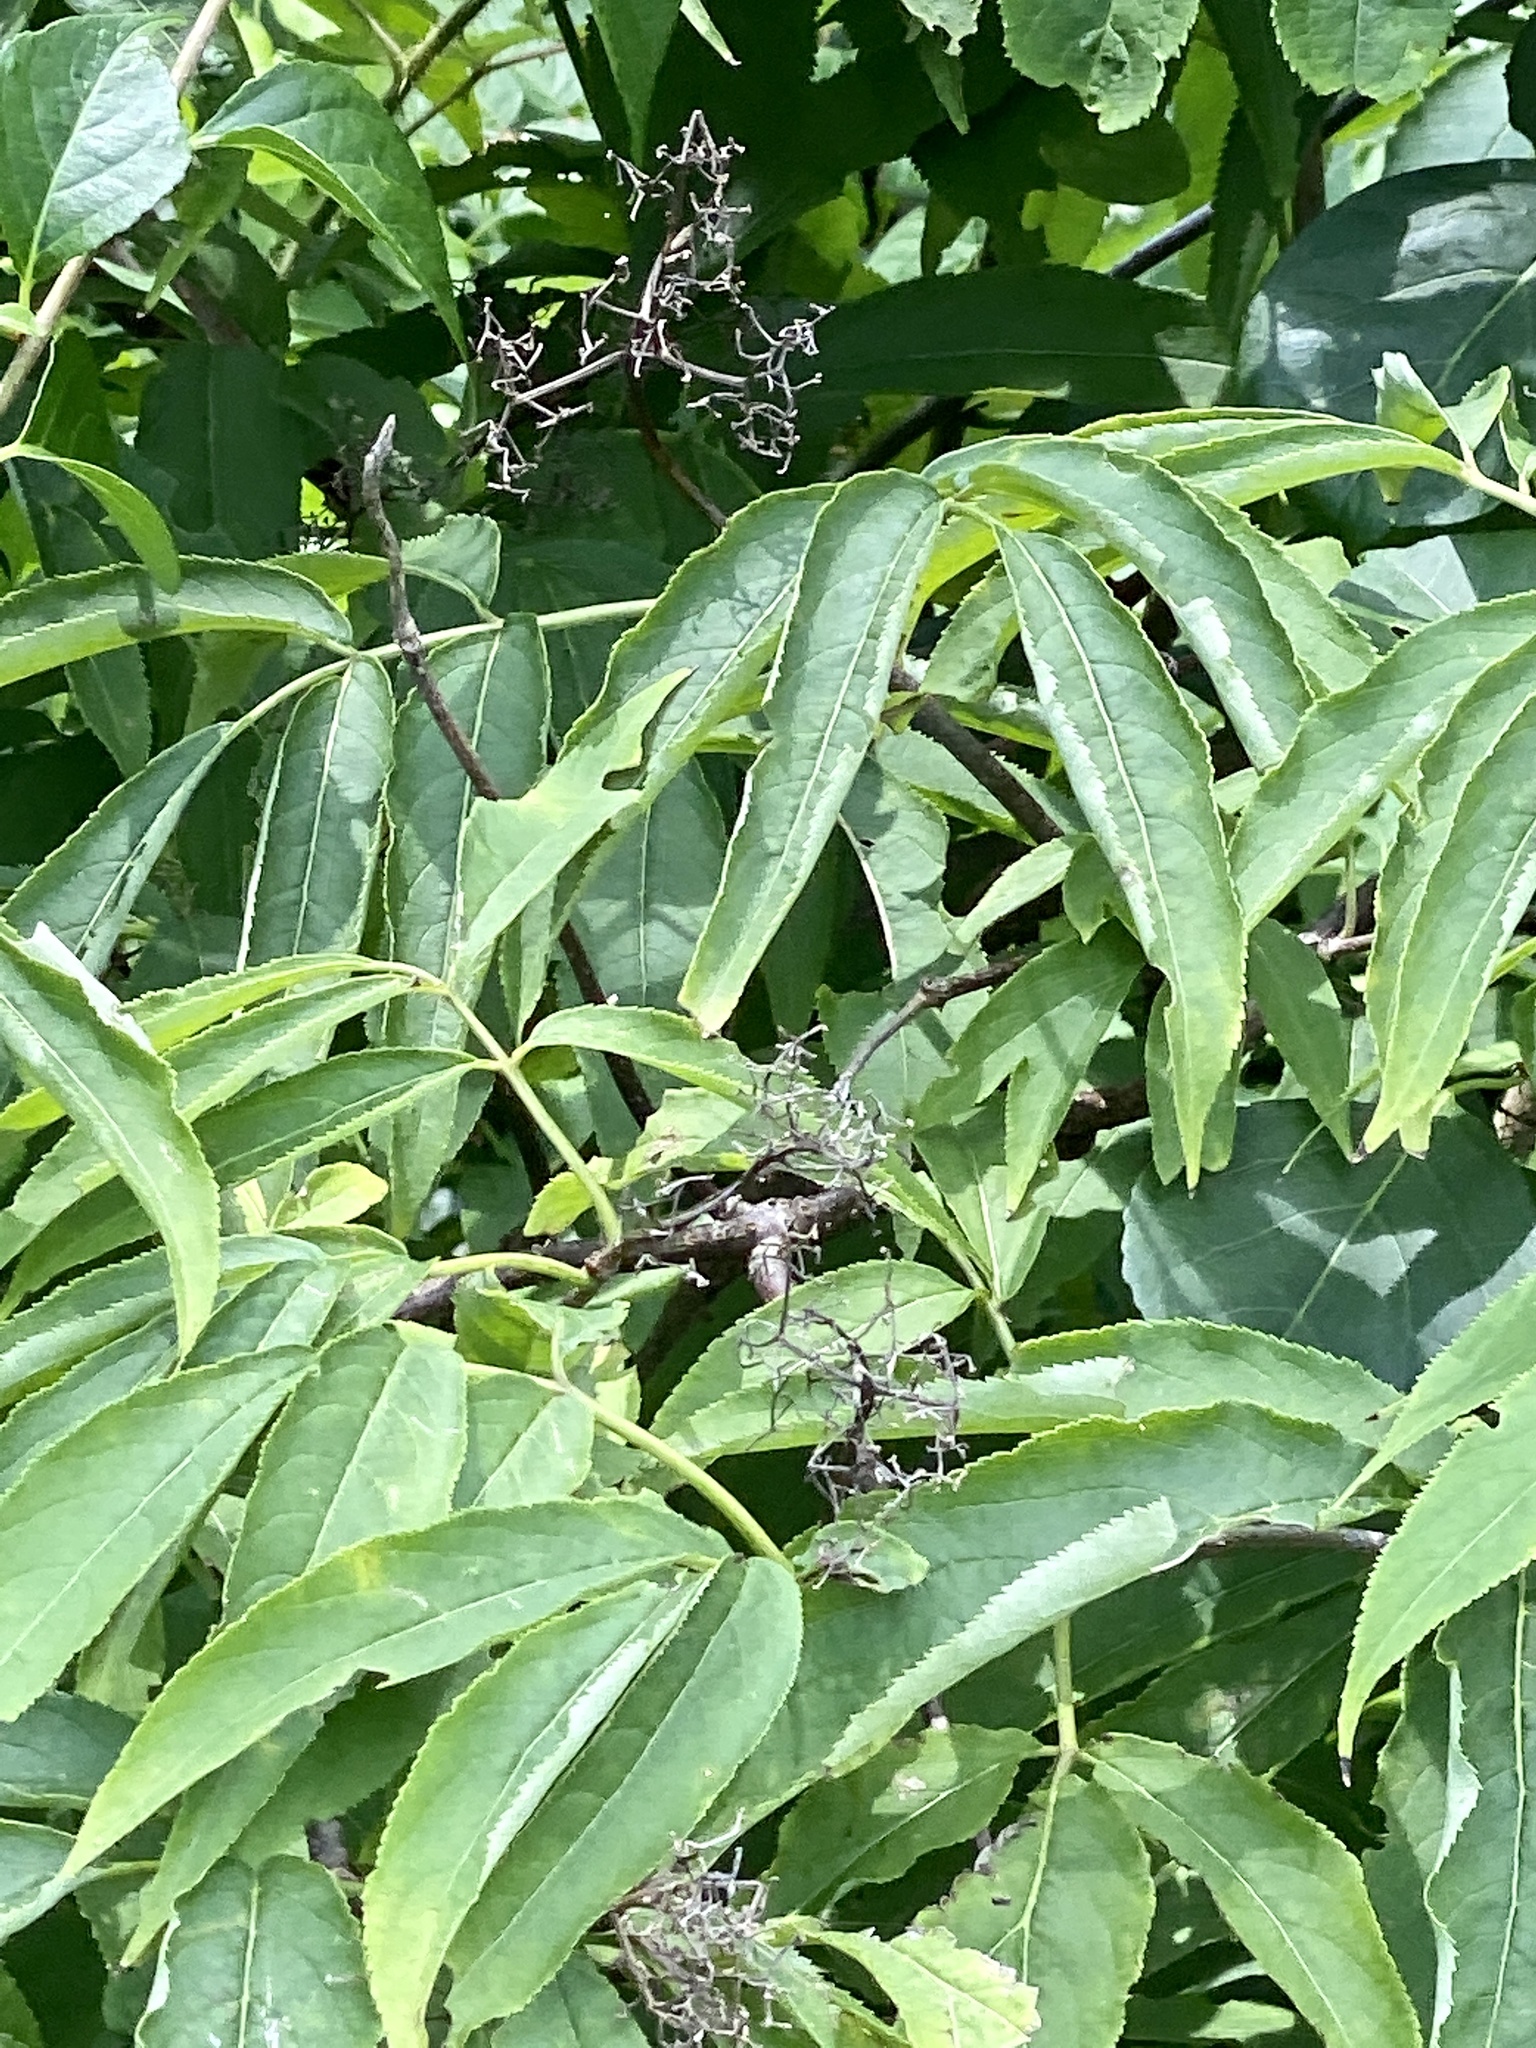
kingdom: Plantae
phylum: Tracheophyta
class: Magnoliopsida
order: Dipsacales
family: Viburnaceae
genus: Sambucus
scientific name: Sambucus racemosa
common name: Red-berried elder
